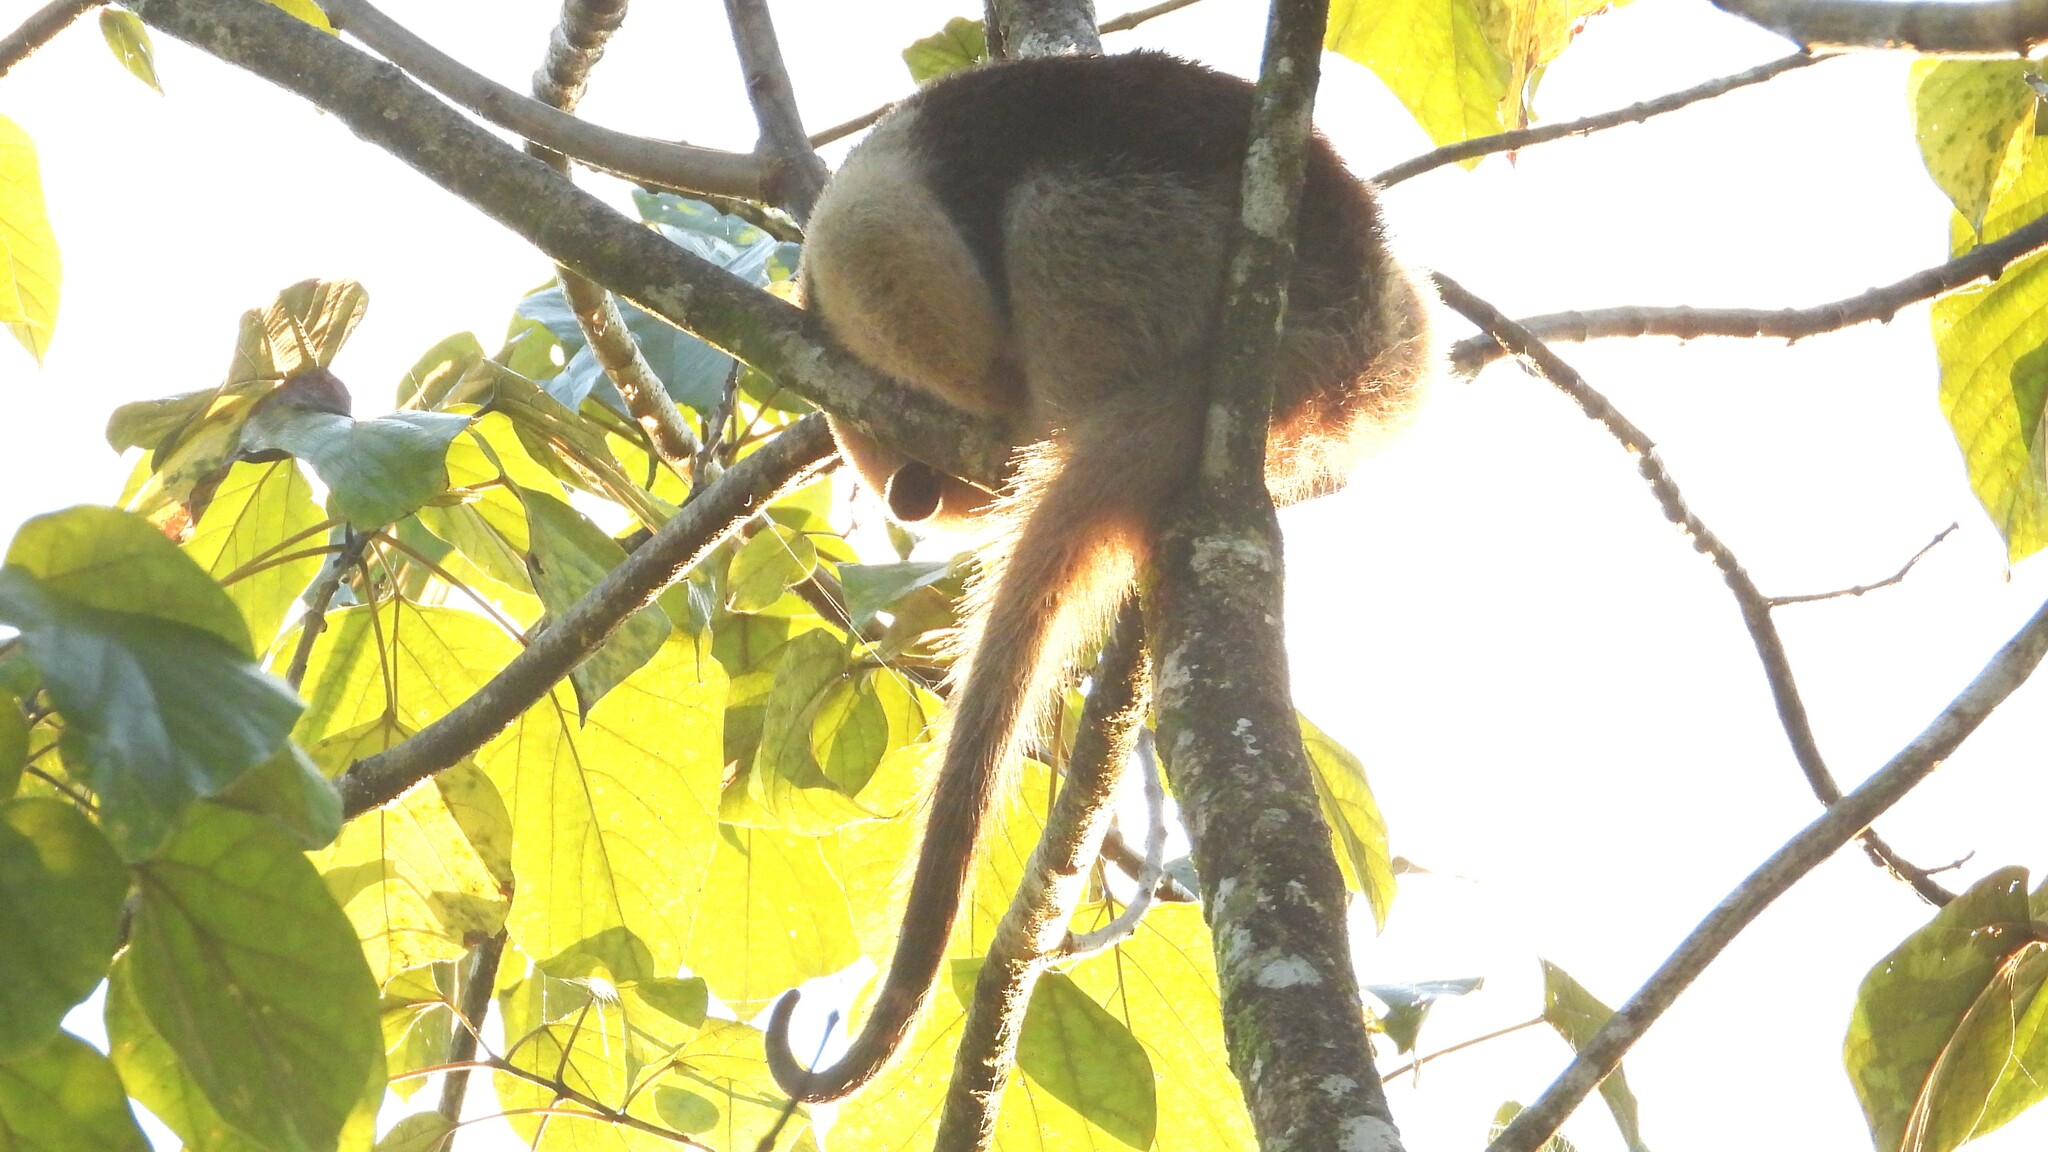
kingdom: Animalia
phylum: Chordata
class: Mammalia
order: Pilosa
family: Myrmecophagidae
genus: Tamandua
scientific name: Tamandua mexicana
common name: Northern tamandua
